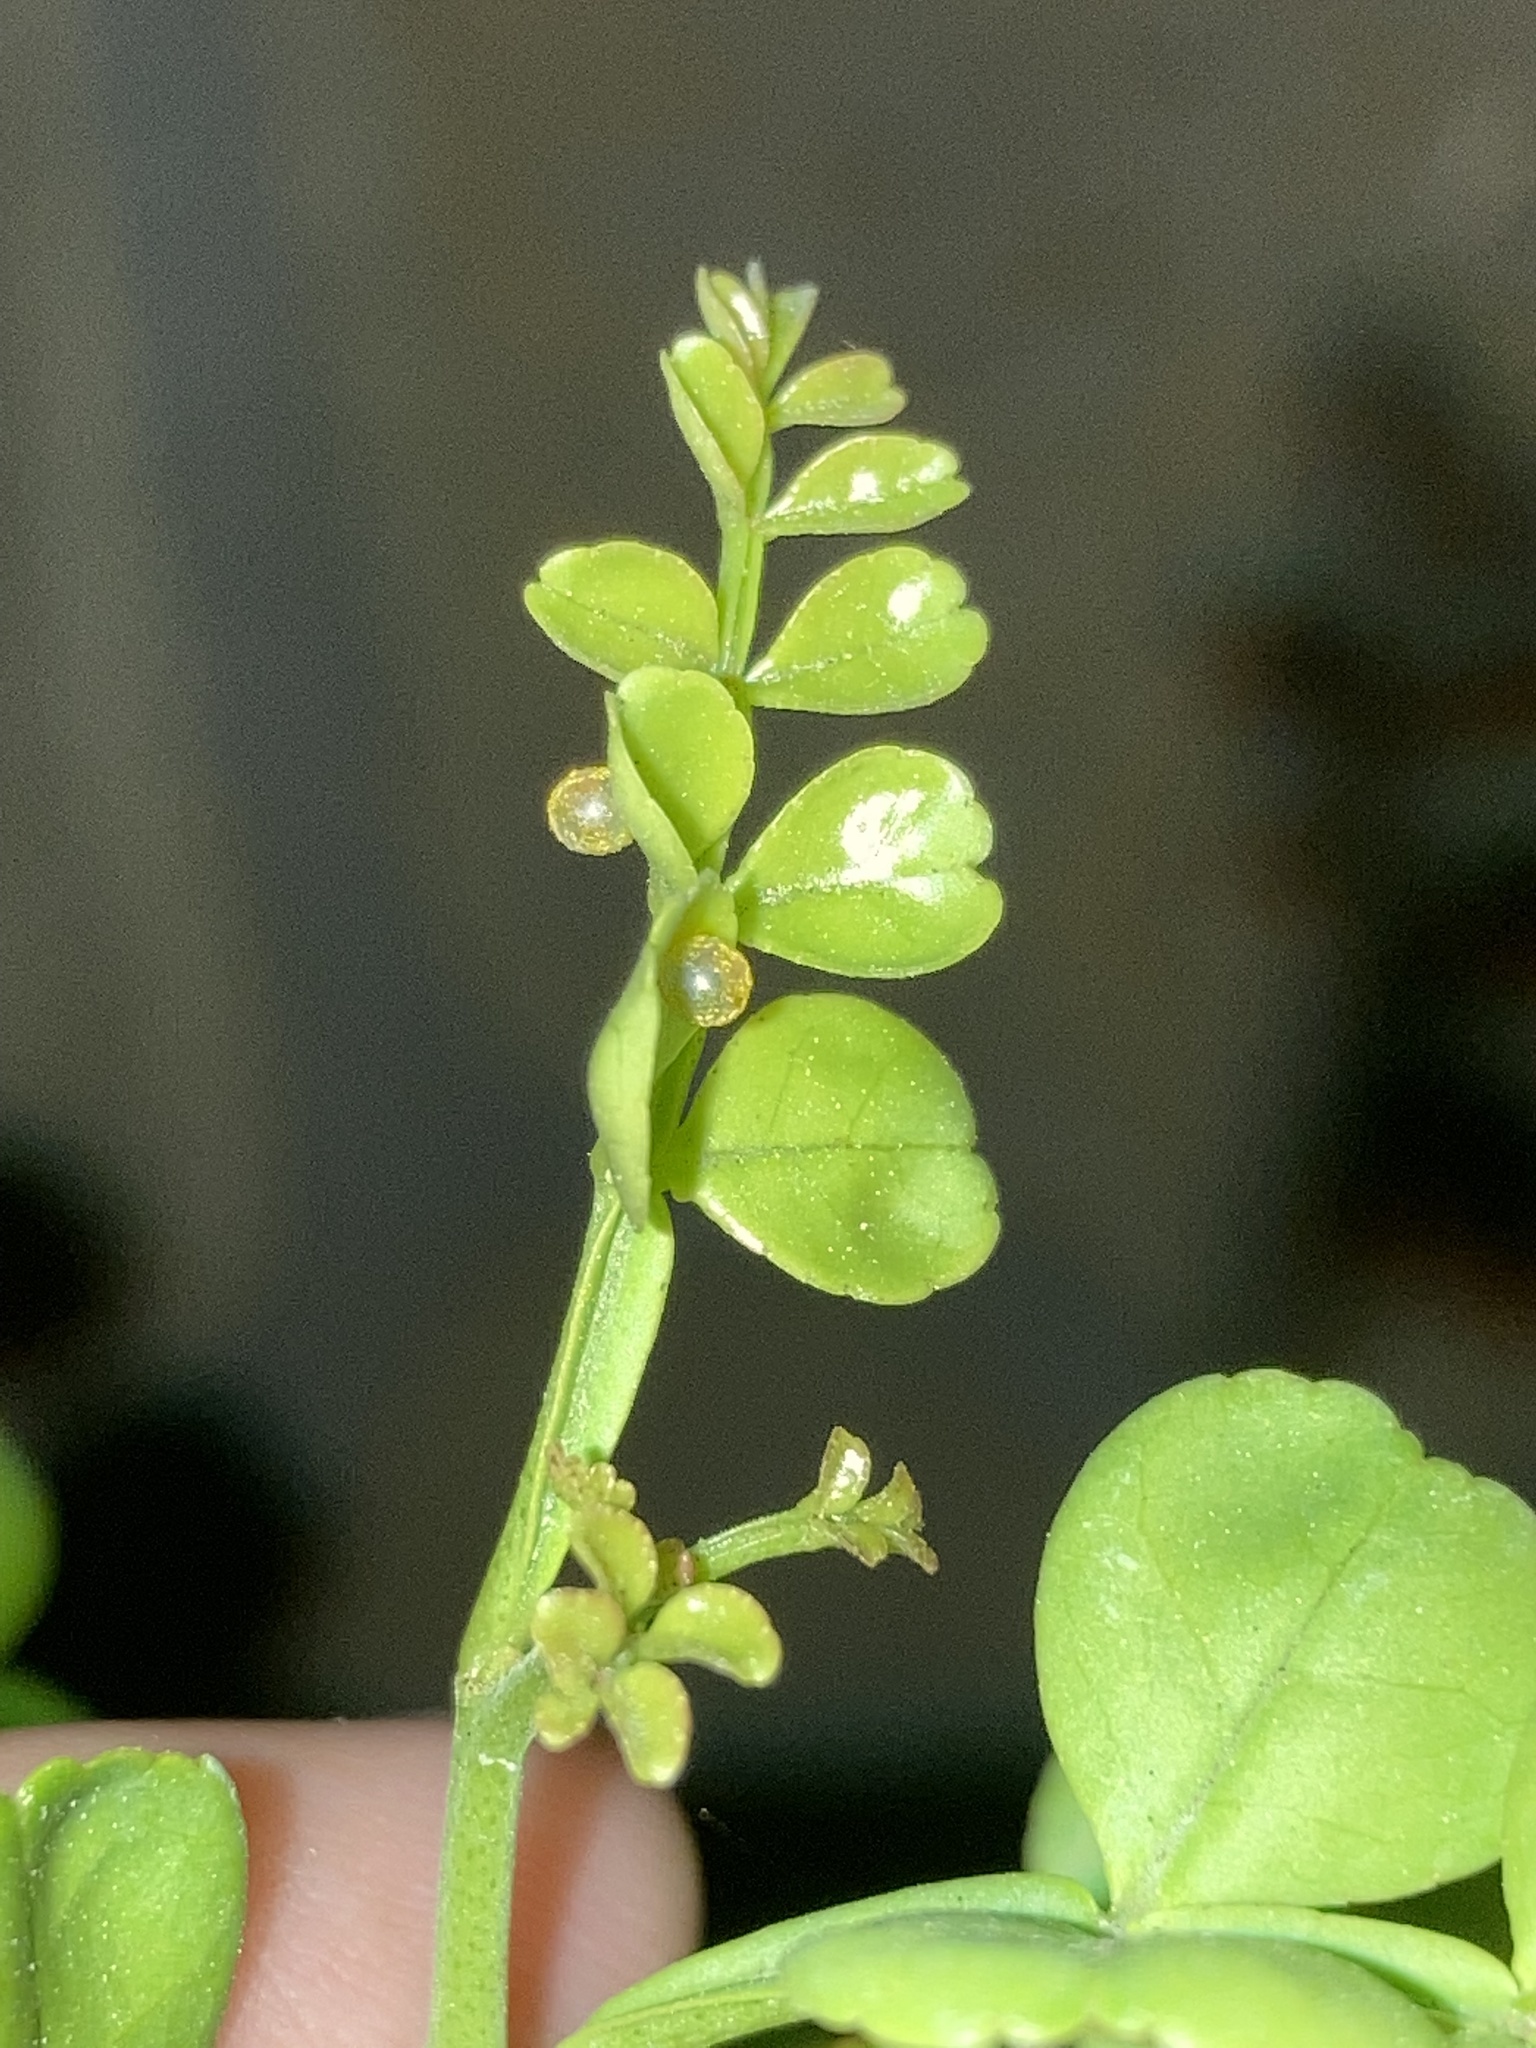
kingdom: Animalia
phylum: Arthropoda
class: Insecta
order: Lepidoptera
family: Papilionidae
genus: Papilio
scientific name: Papilio cresphontes
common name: Giant swallowtail
